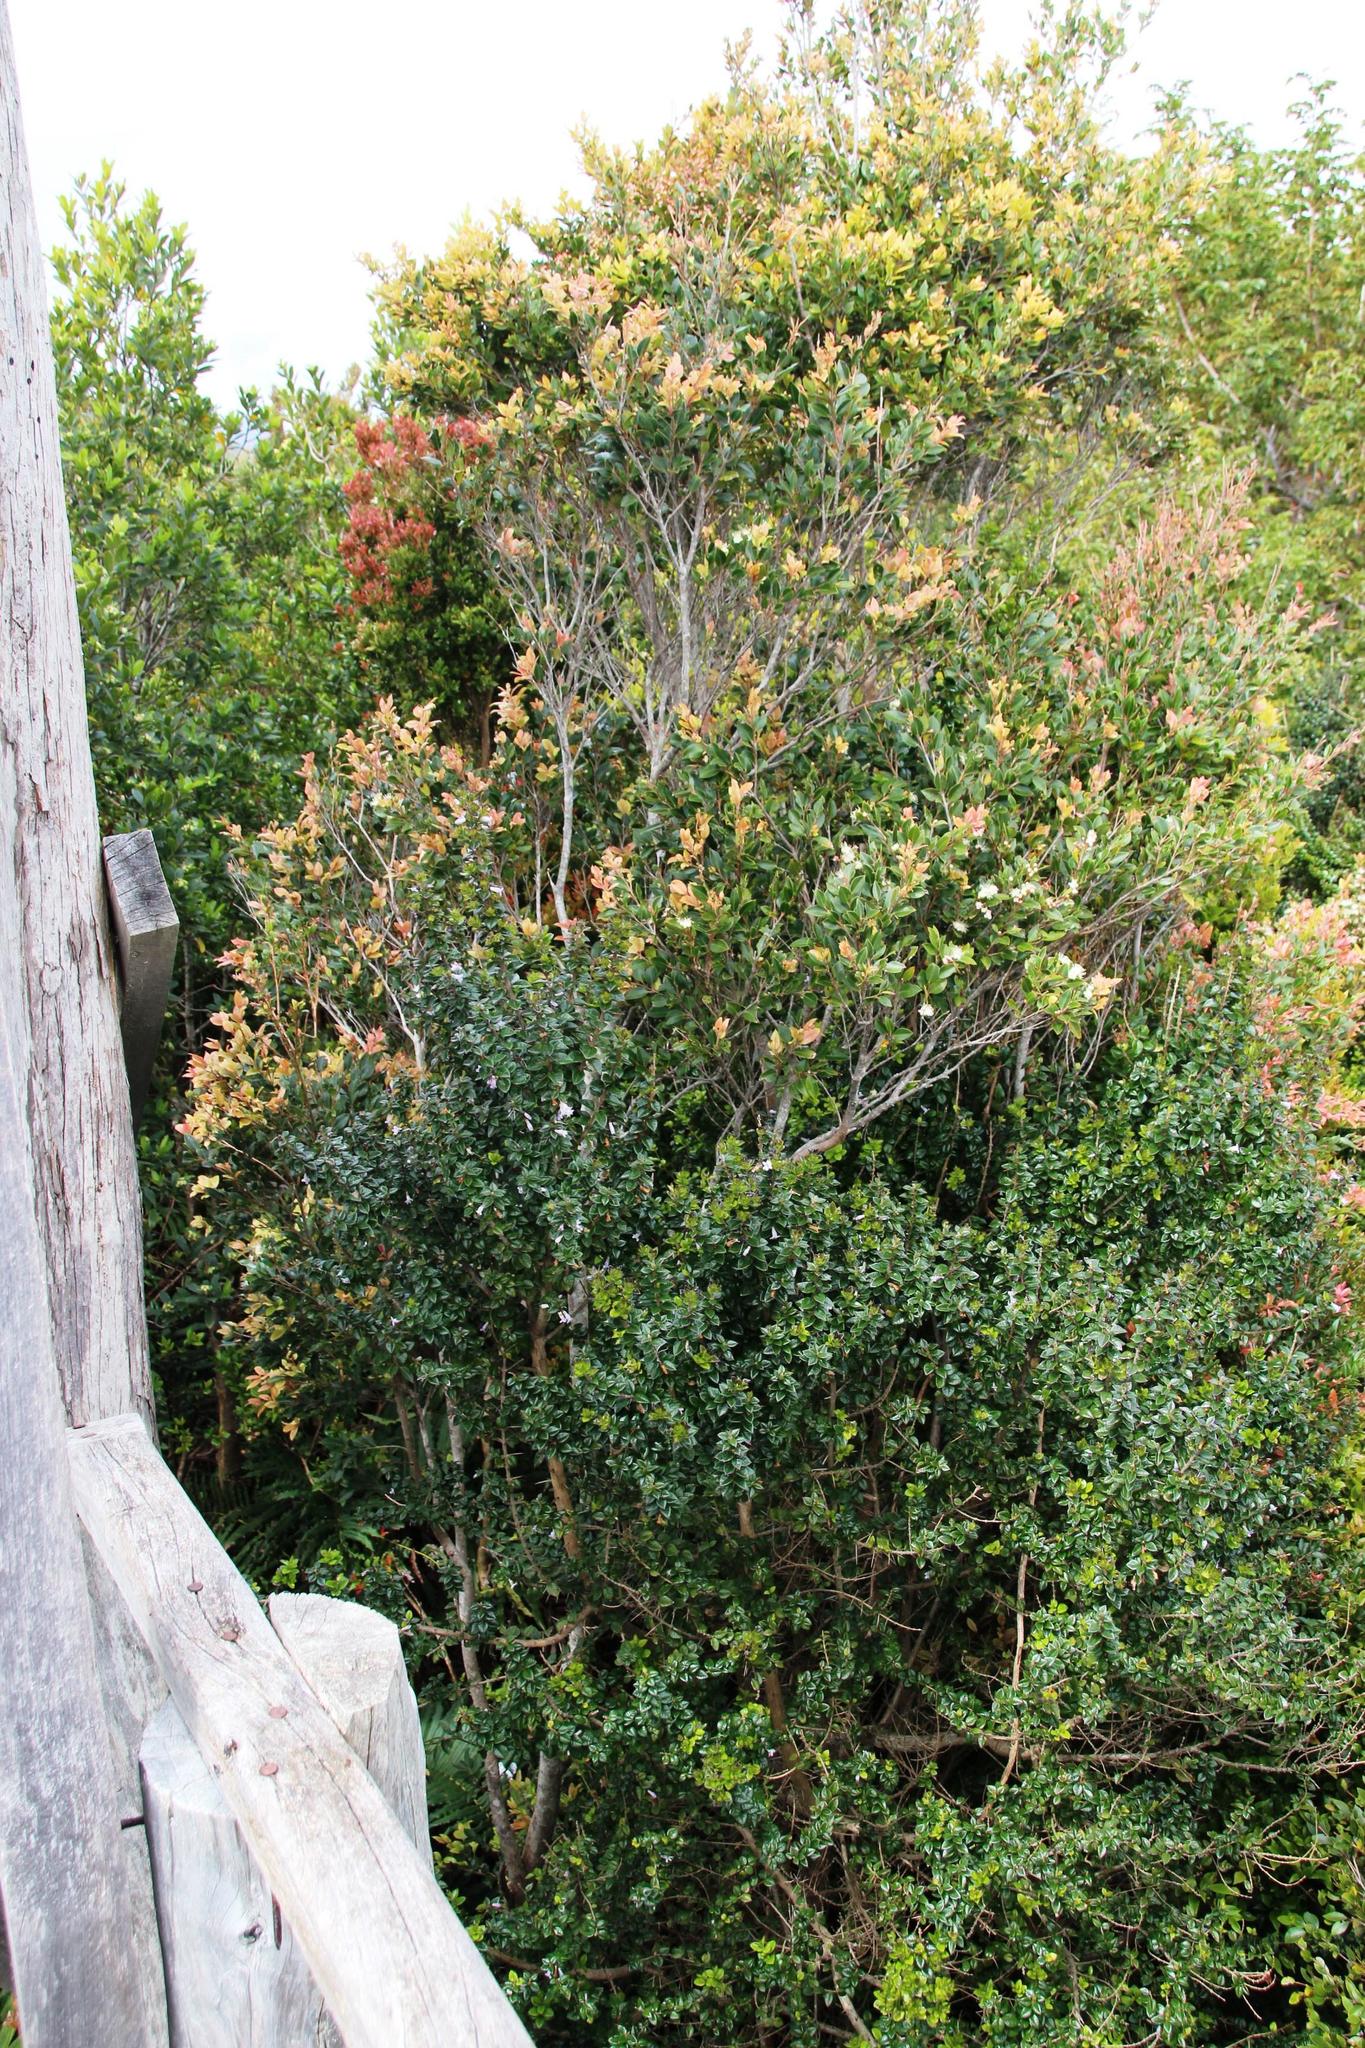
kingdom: Plantae
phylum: Tracheophyta
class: Magnoliopsida
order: Lamiales
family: Verbenaceae
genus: Rhaphithamnus
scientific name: Rhaphithamnus spinosus
